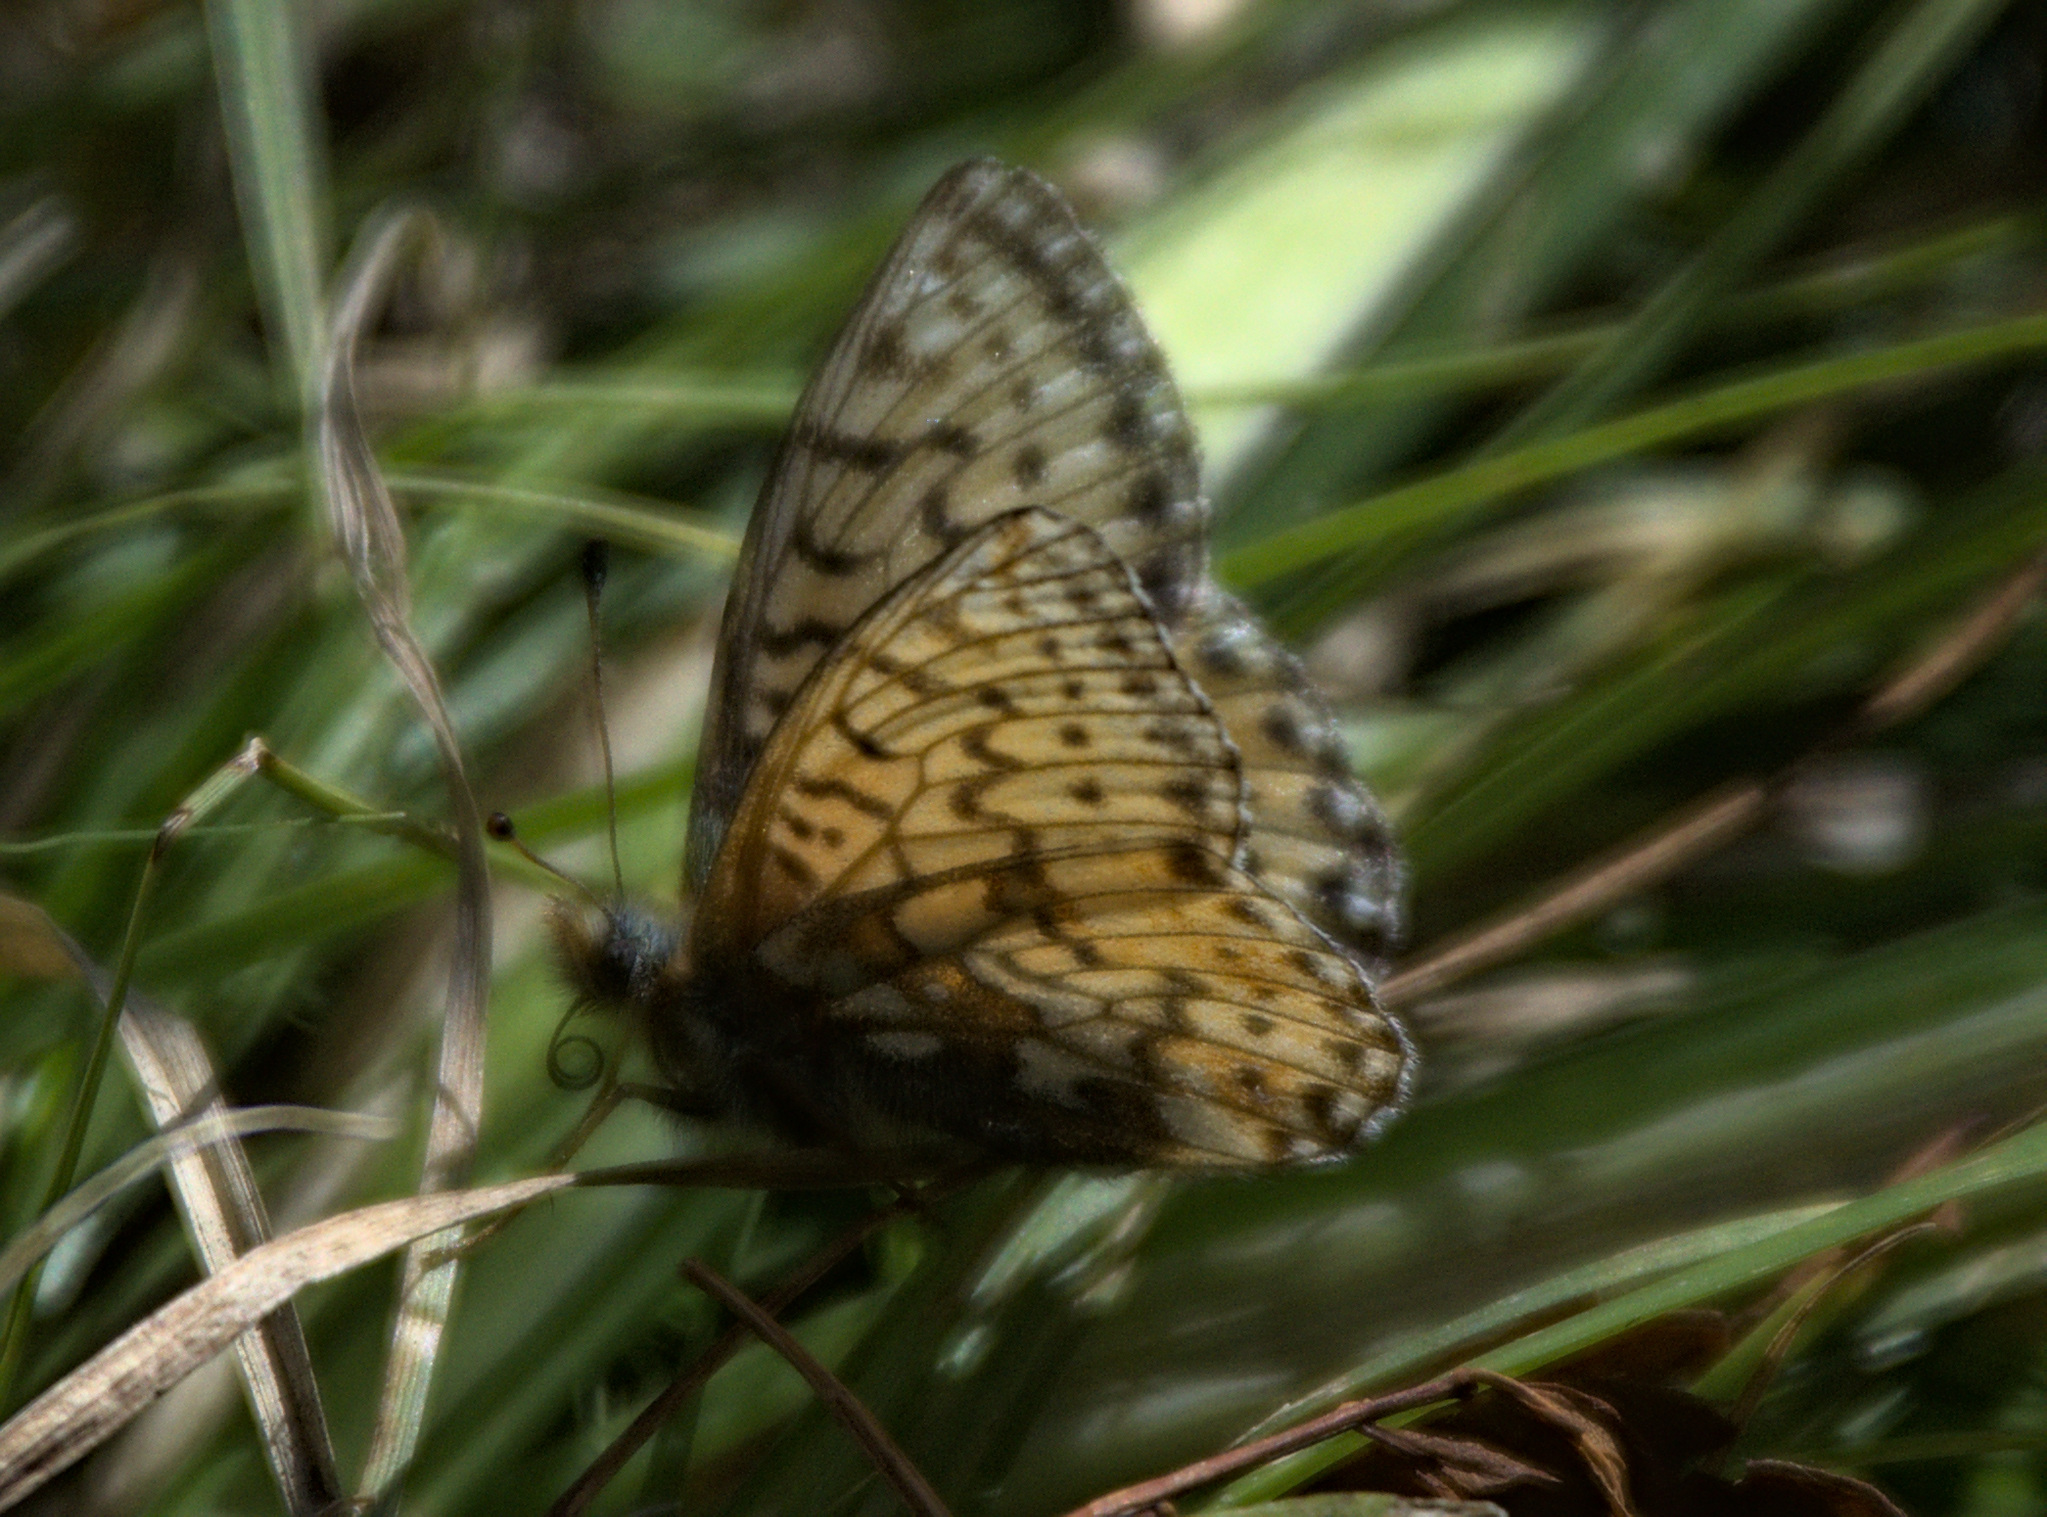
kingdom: Animalia
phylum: Arthropoda
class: Insecta
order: Lepidoptera
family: Nymphalidae
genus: Boloria
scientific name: Boloria
